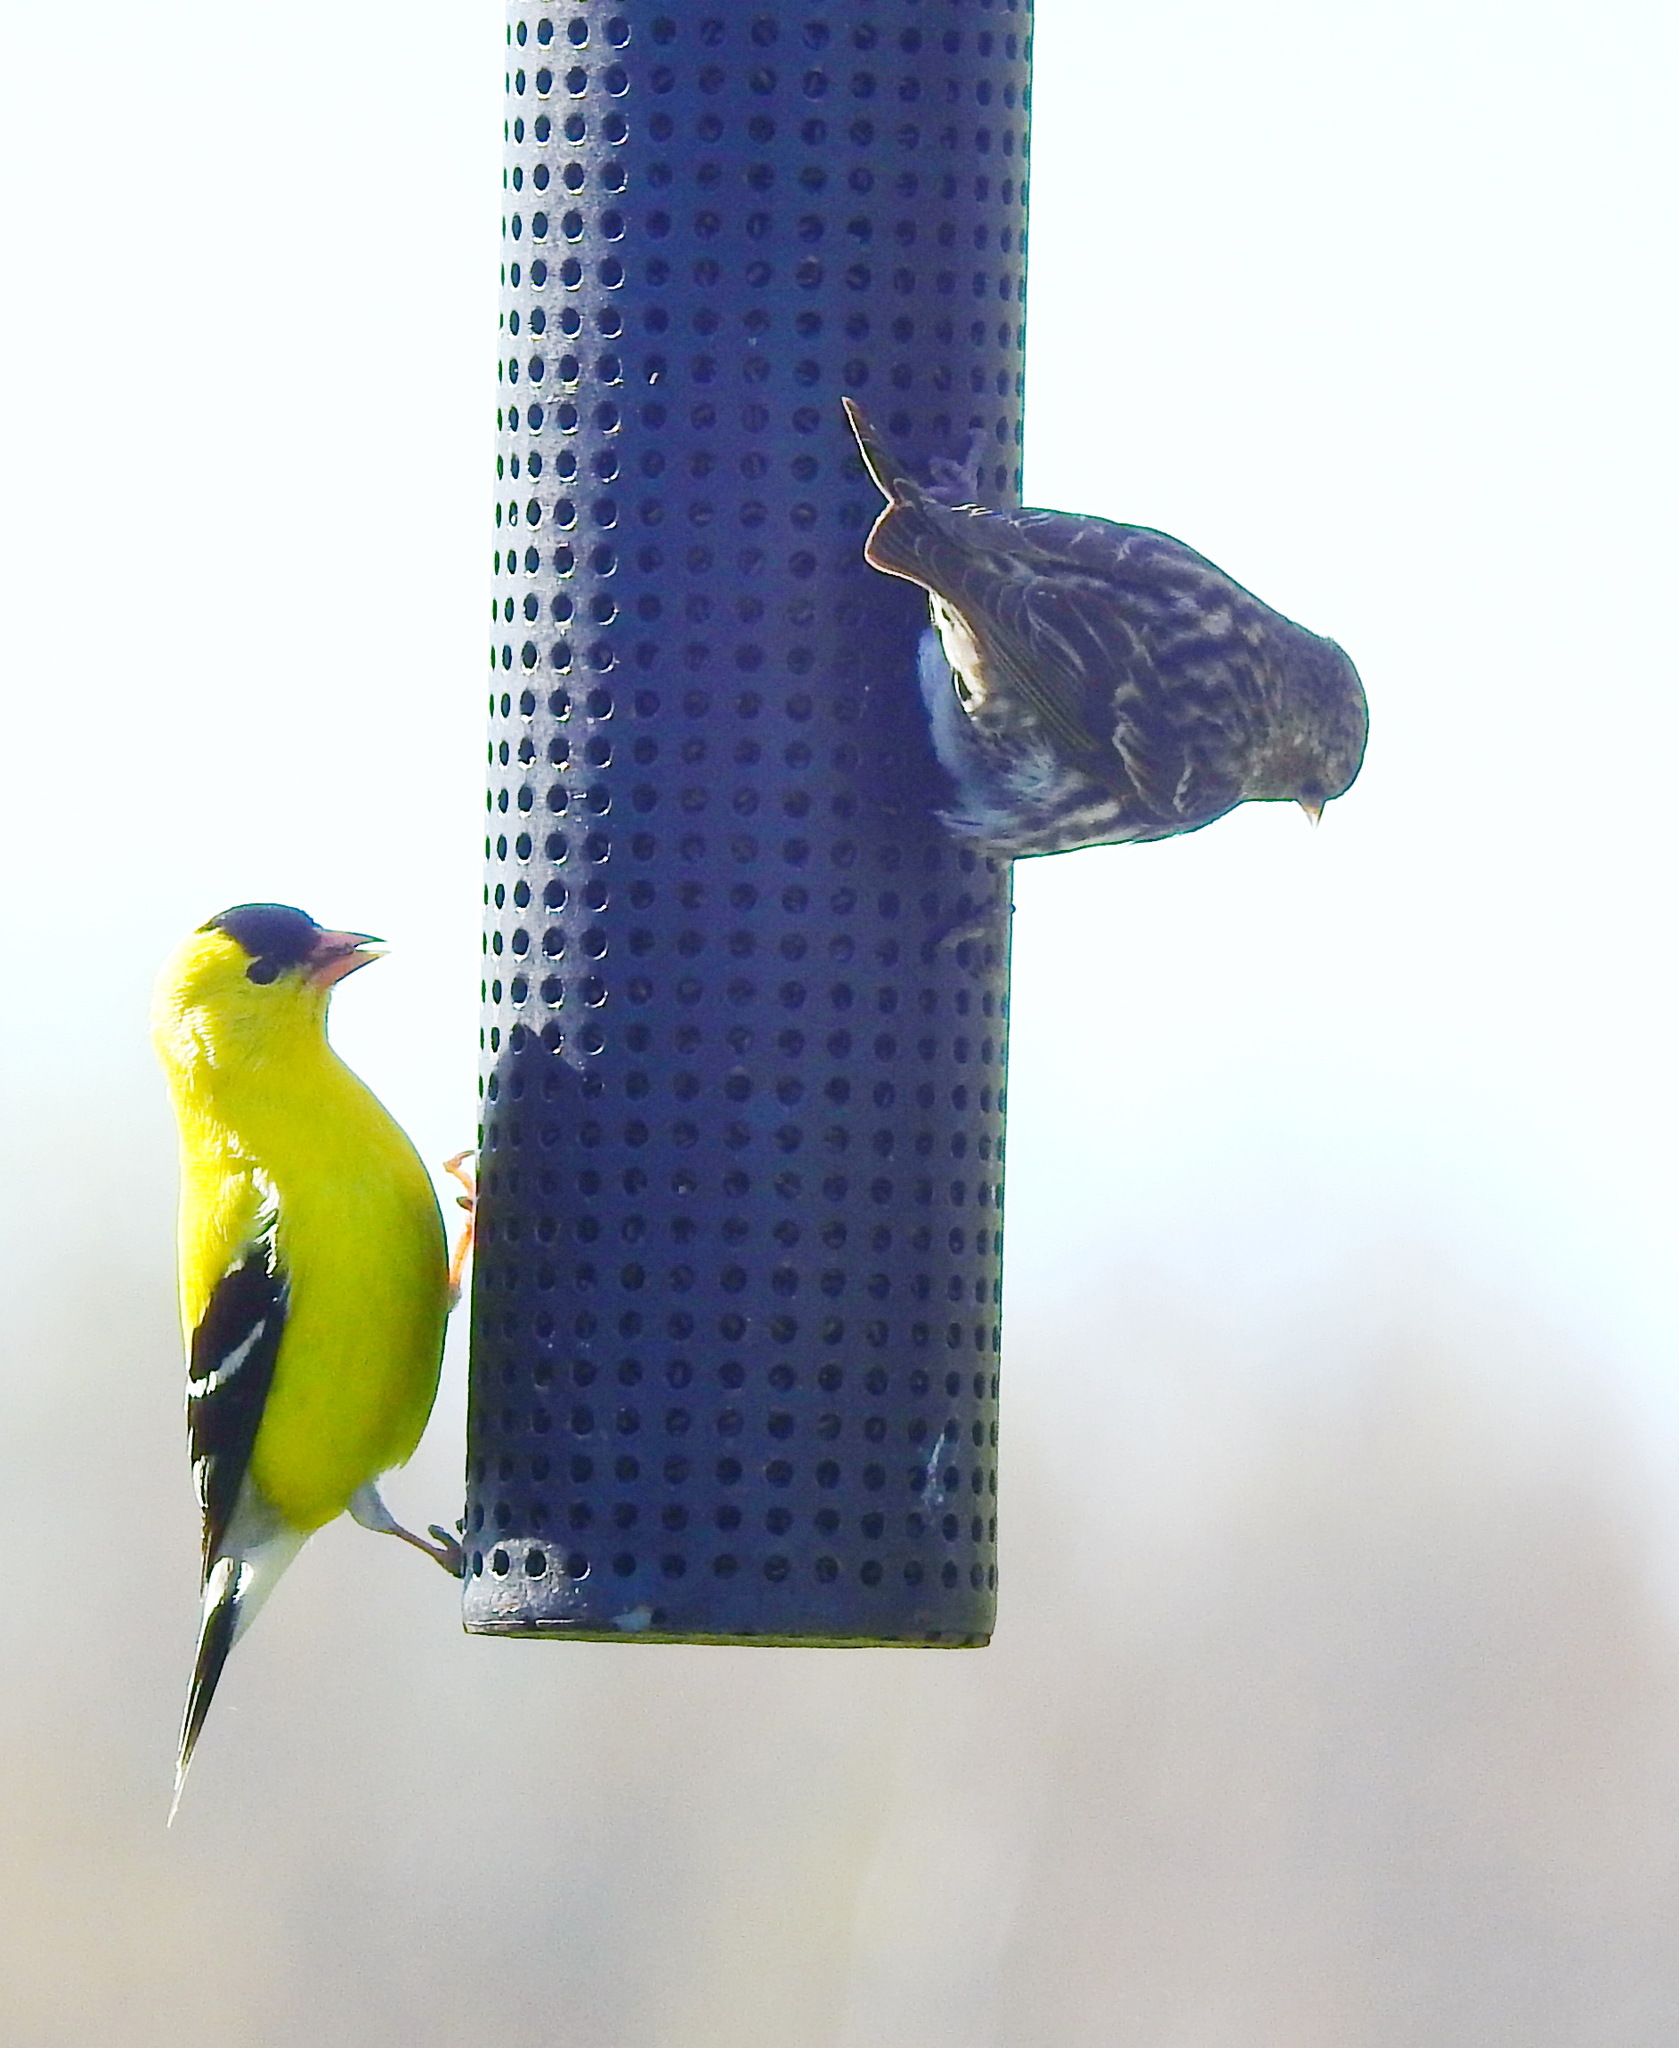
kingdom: Animalia
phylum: Chordata
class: Aves
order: Passeriformes
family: Fringillidae
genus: Spinus
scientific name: Spinus tristis
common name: American goldfinch
